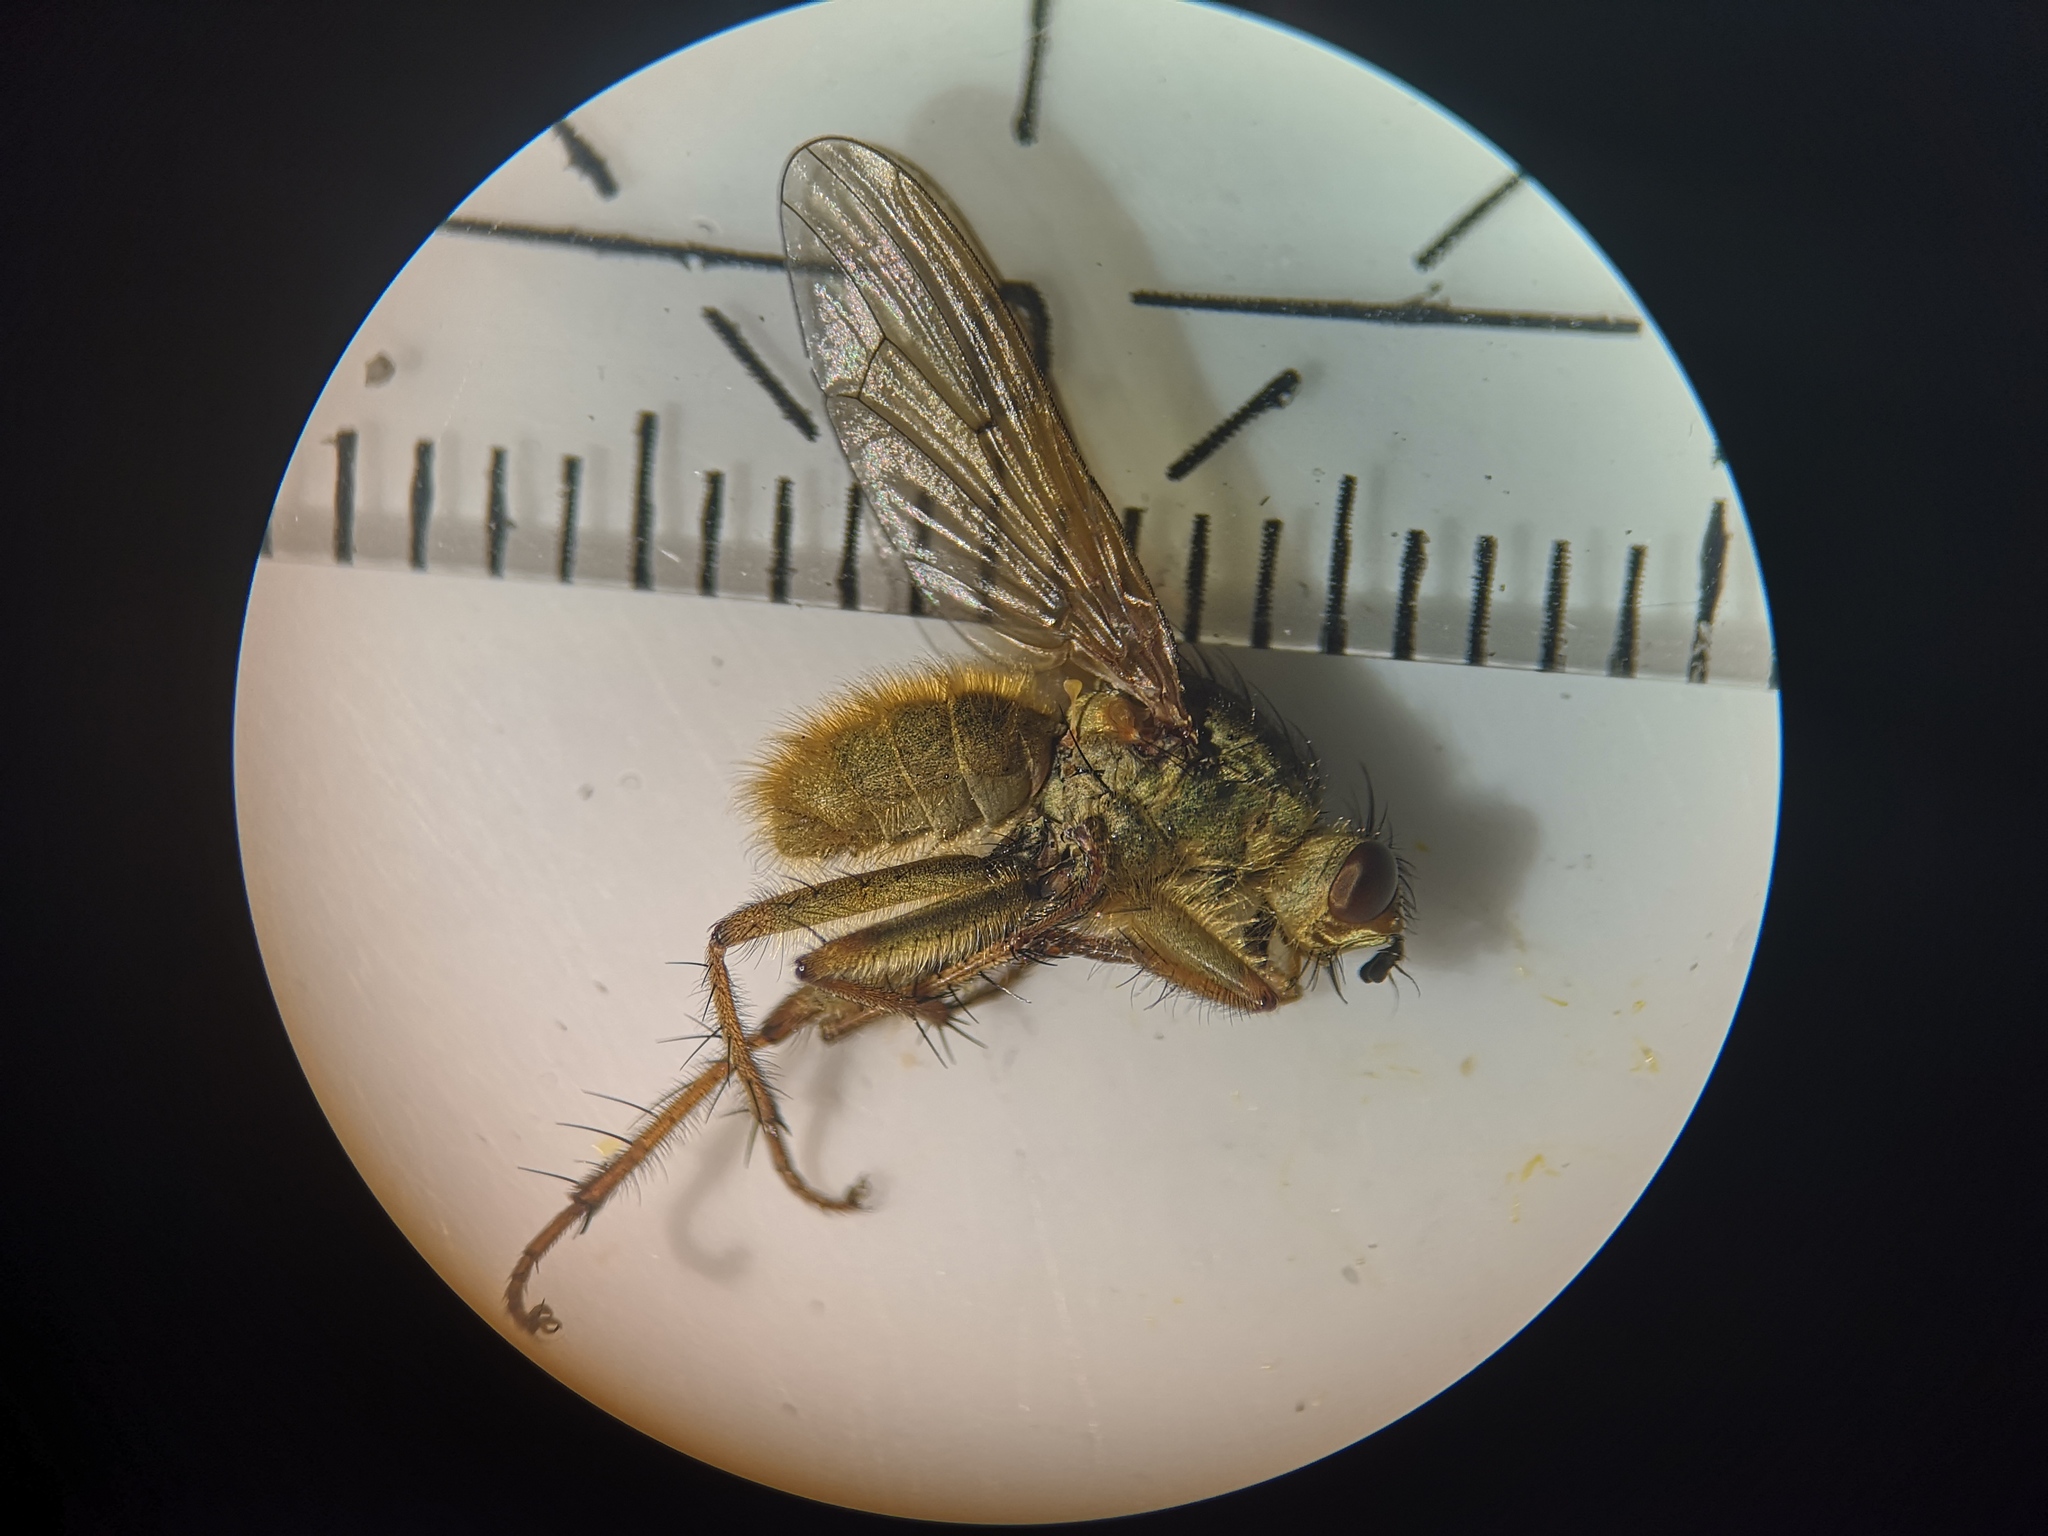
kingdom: Animalia
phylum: Arthropoda
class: Insecta
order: Diptera
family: Scathophagidae
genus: Scathophaga
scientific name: Scathophaga stercoraria
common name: Yellow dung fly
